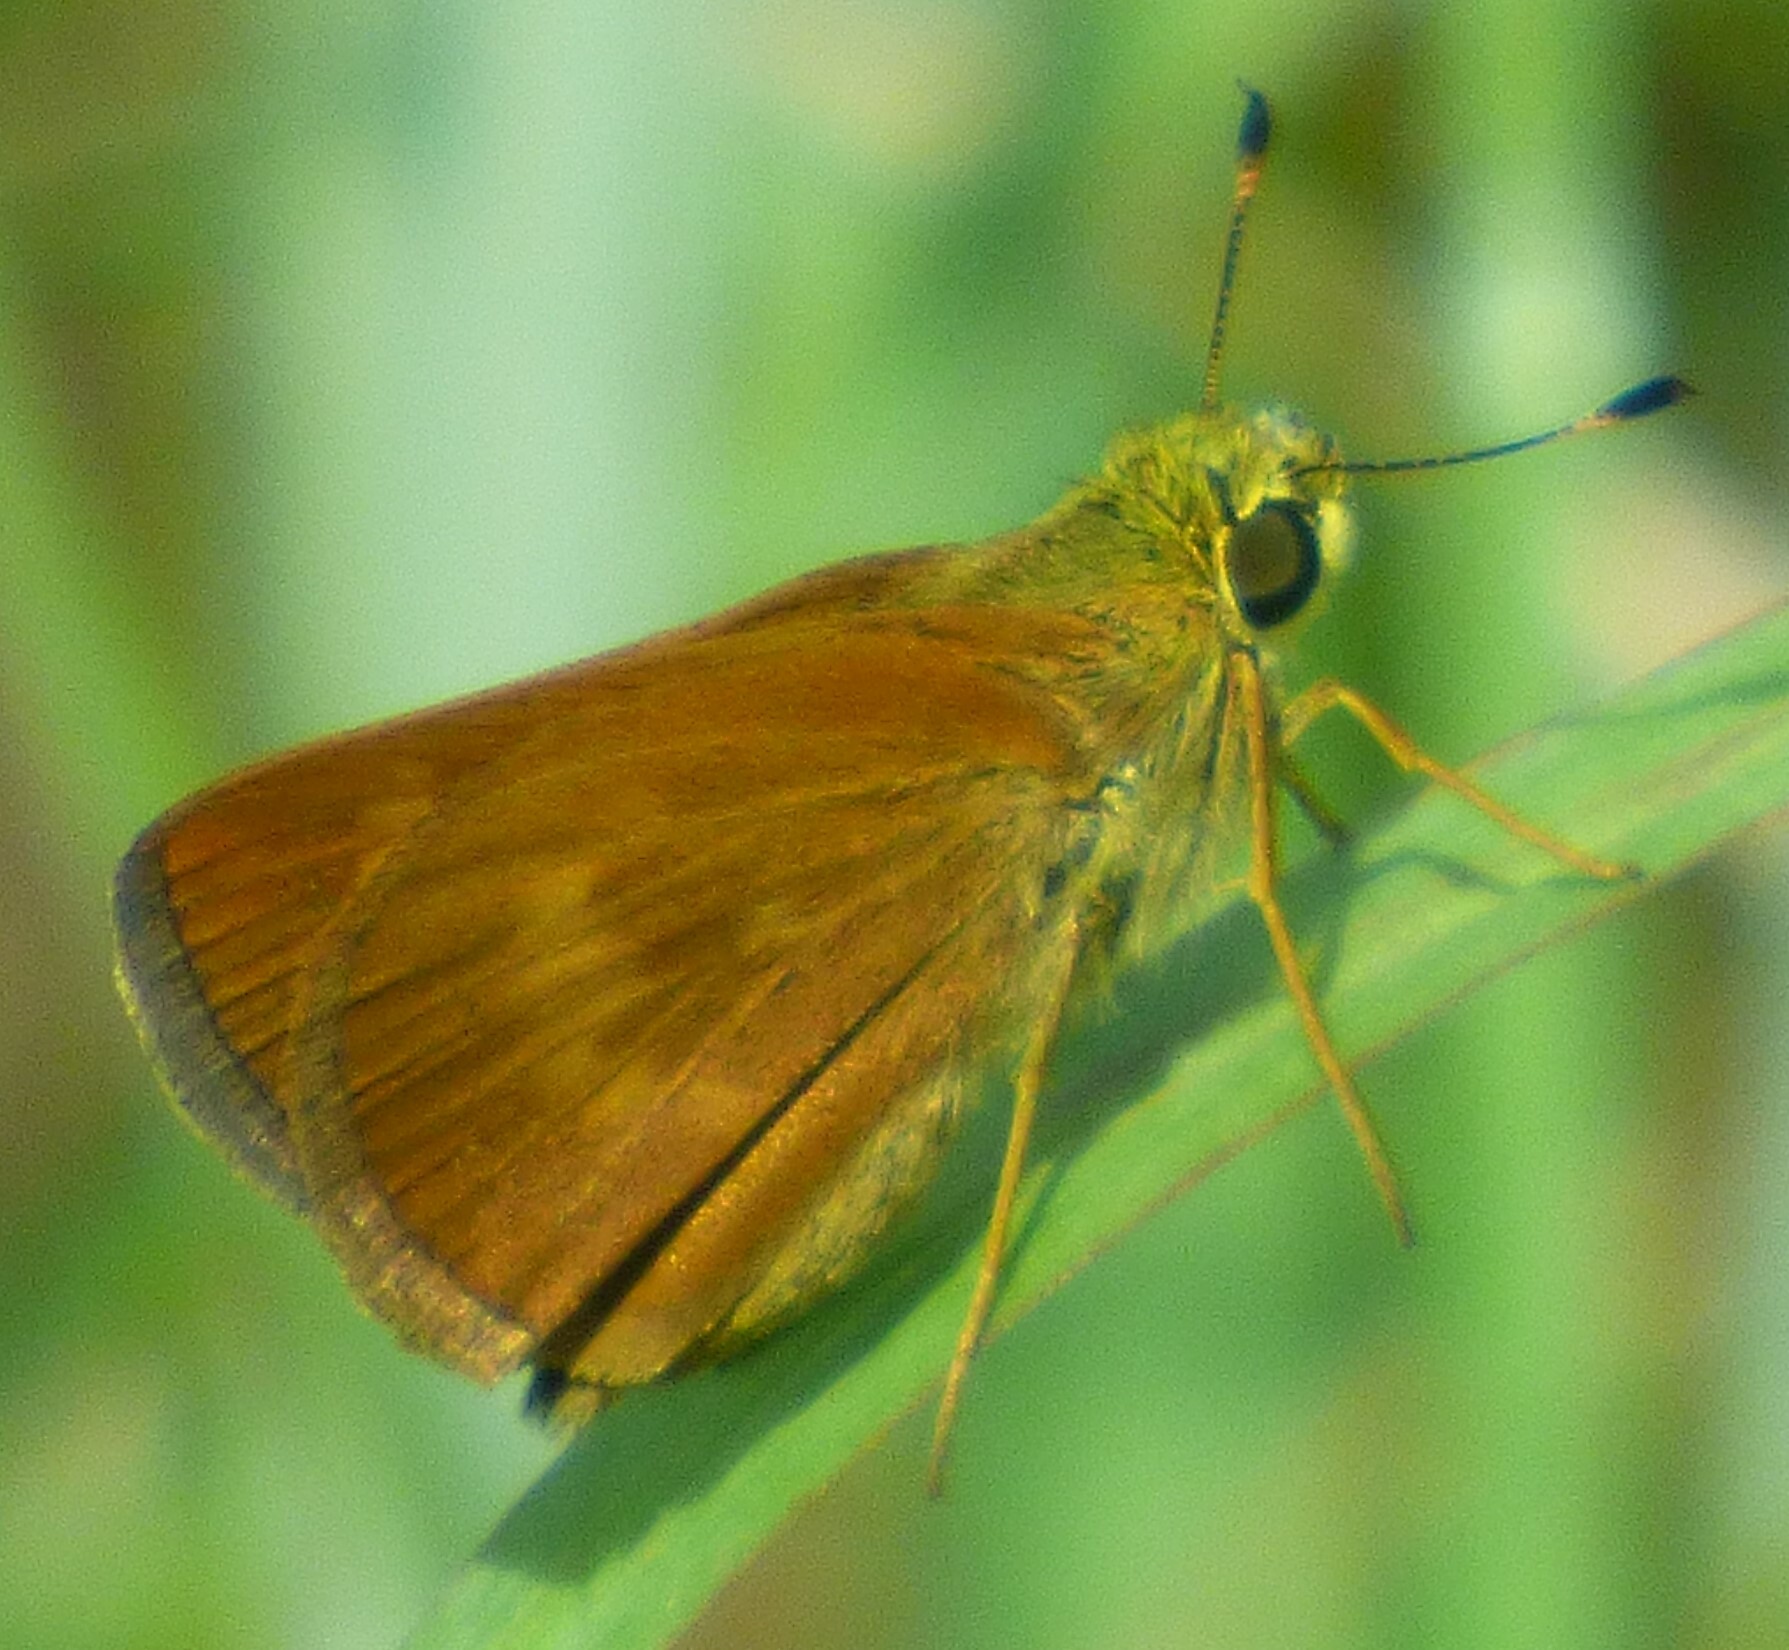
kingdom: Animalia
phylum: Arthropoda
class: Insecta
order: Lepidoptera
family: Hesperiidae
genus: Polites
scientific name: Polites otho
